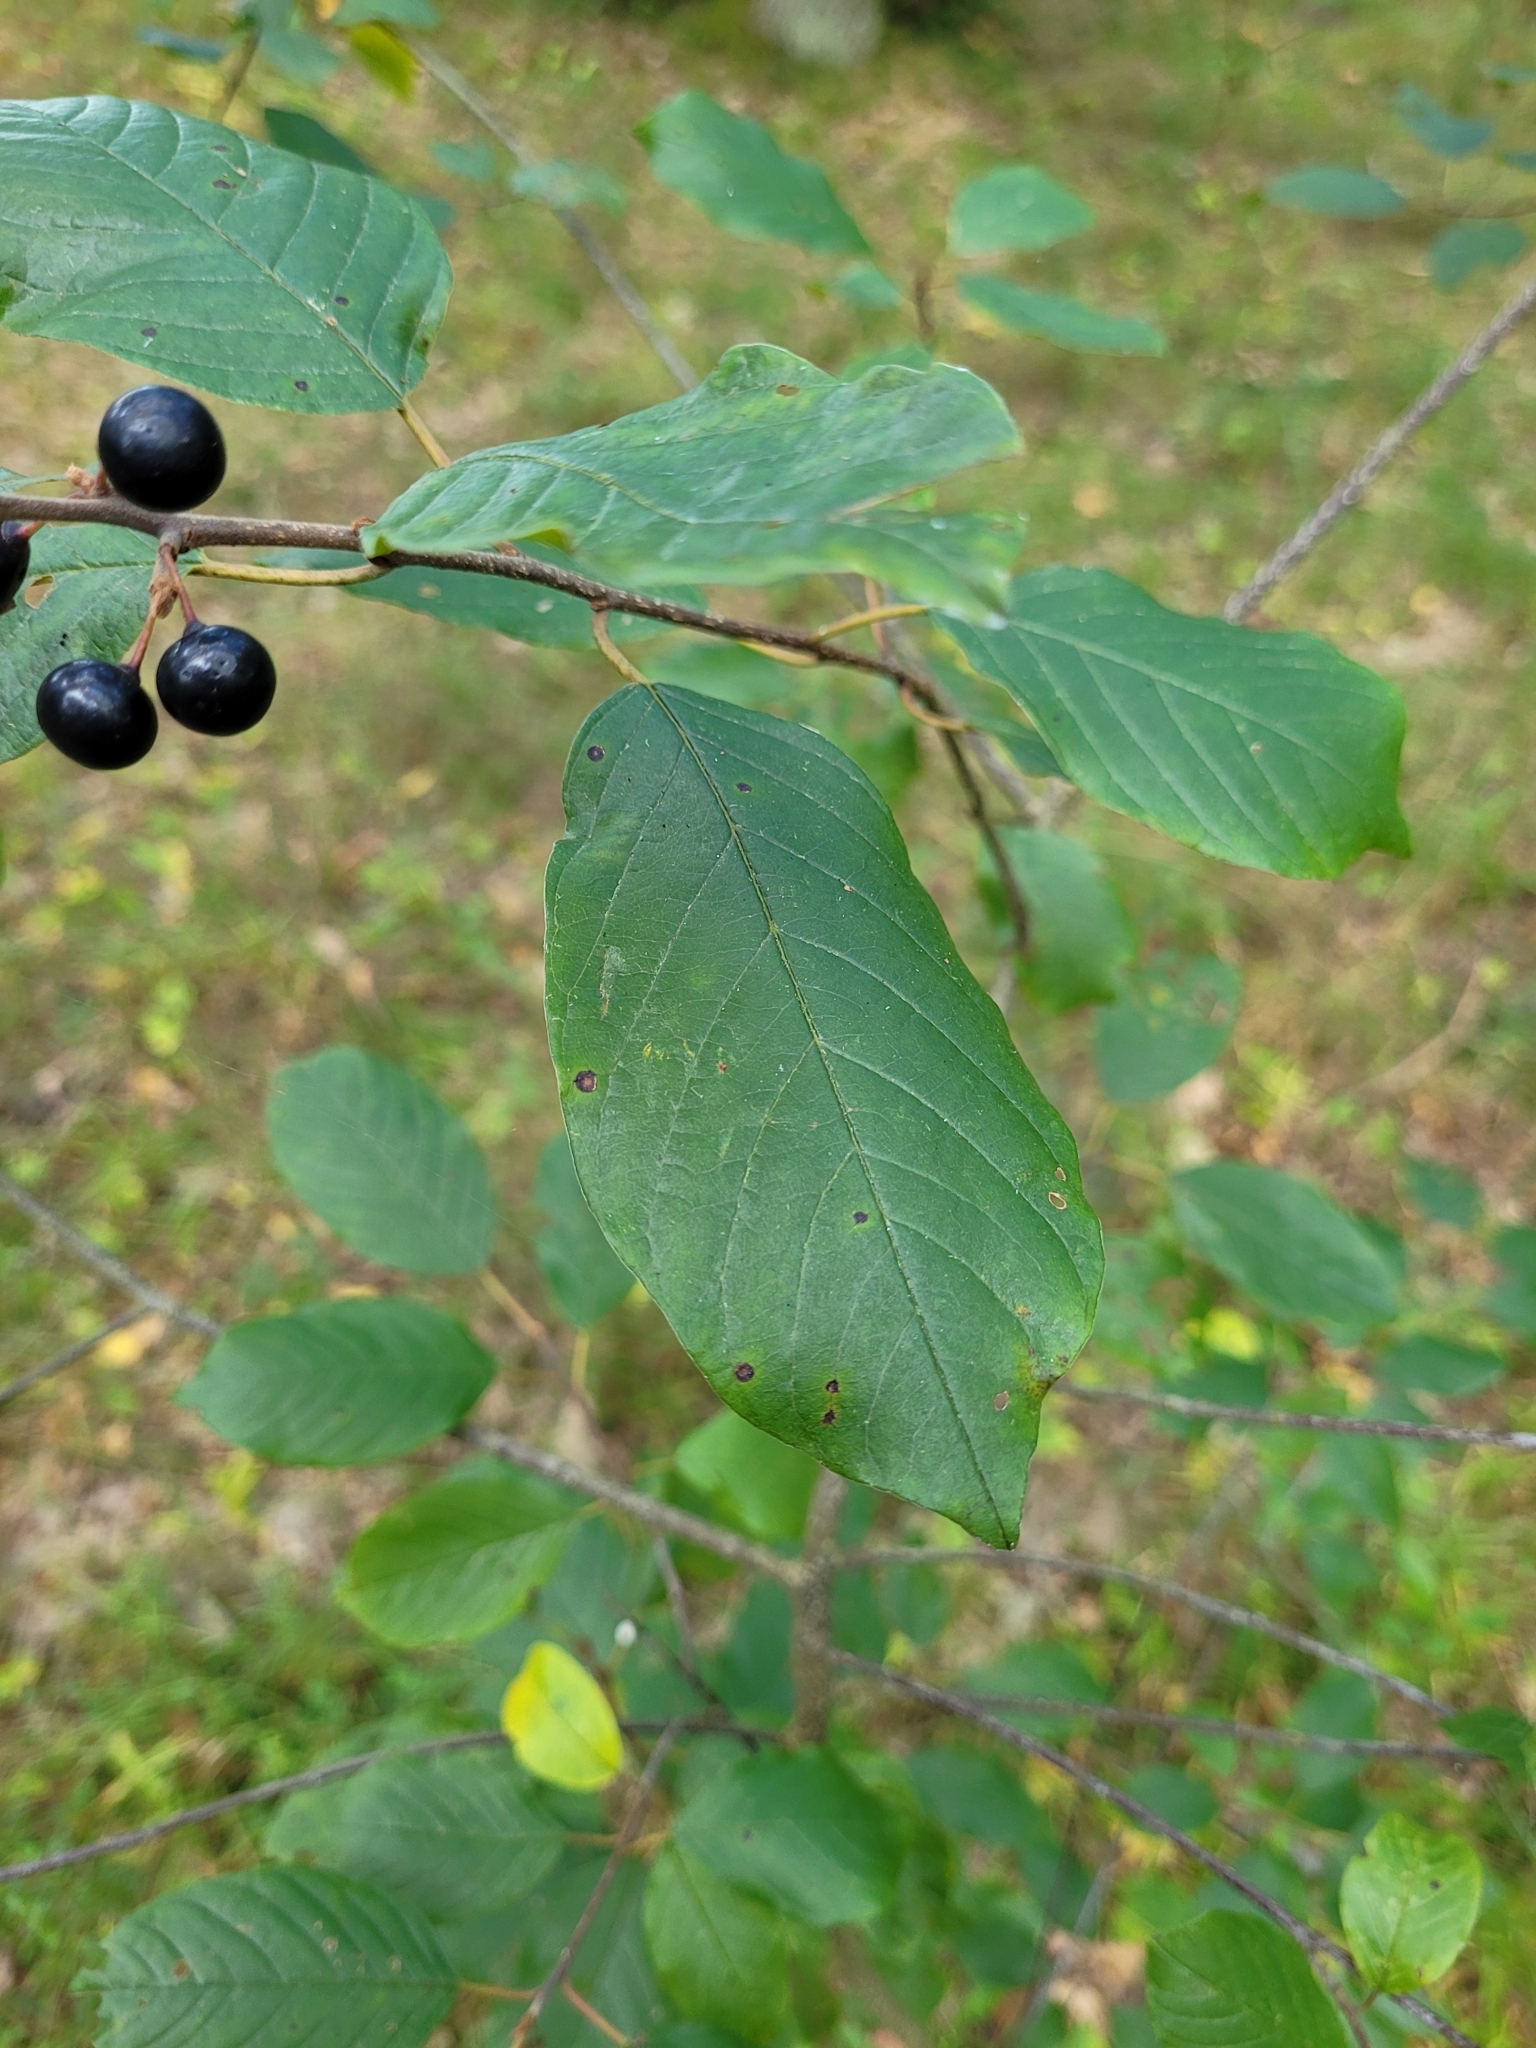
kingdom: Plantae
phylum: Tracheophyta
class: Magnoliopsida
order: Rosales
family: Rosaceae
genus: Prunus
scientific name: Prunus padus
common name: Bird cherry
